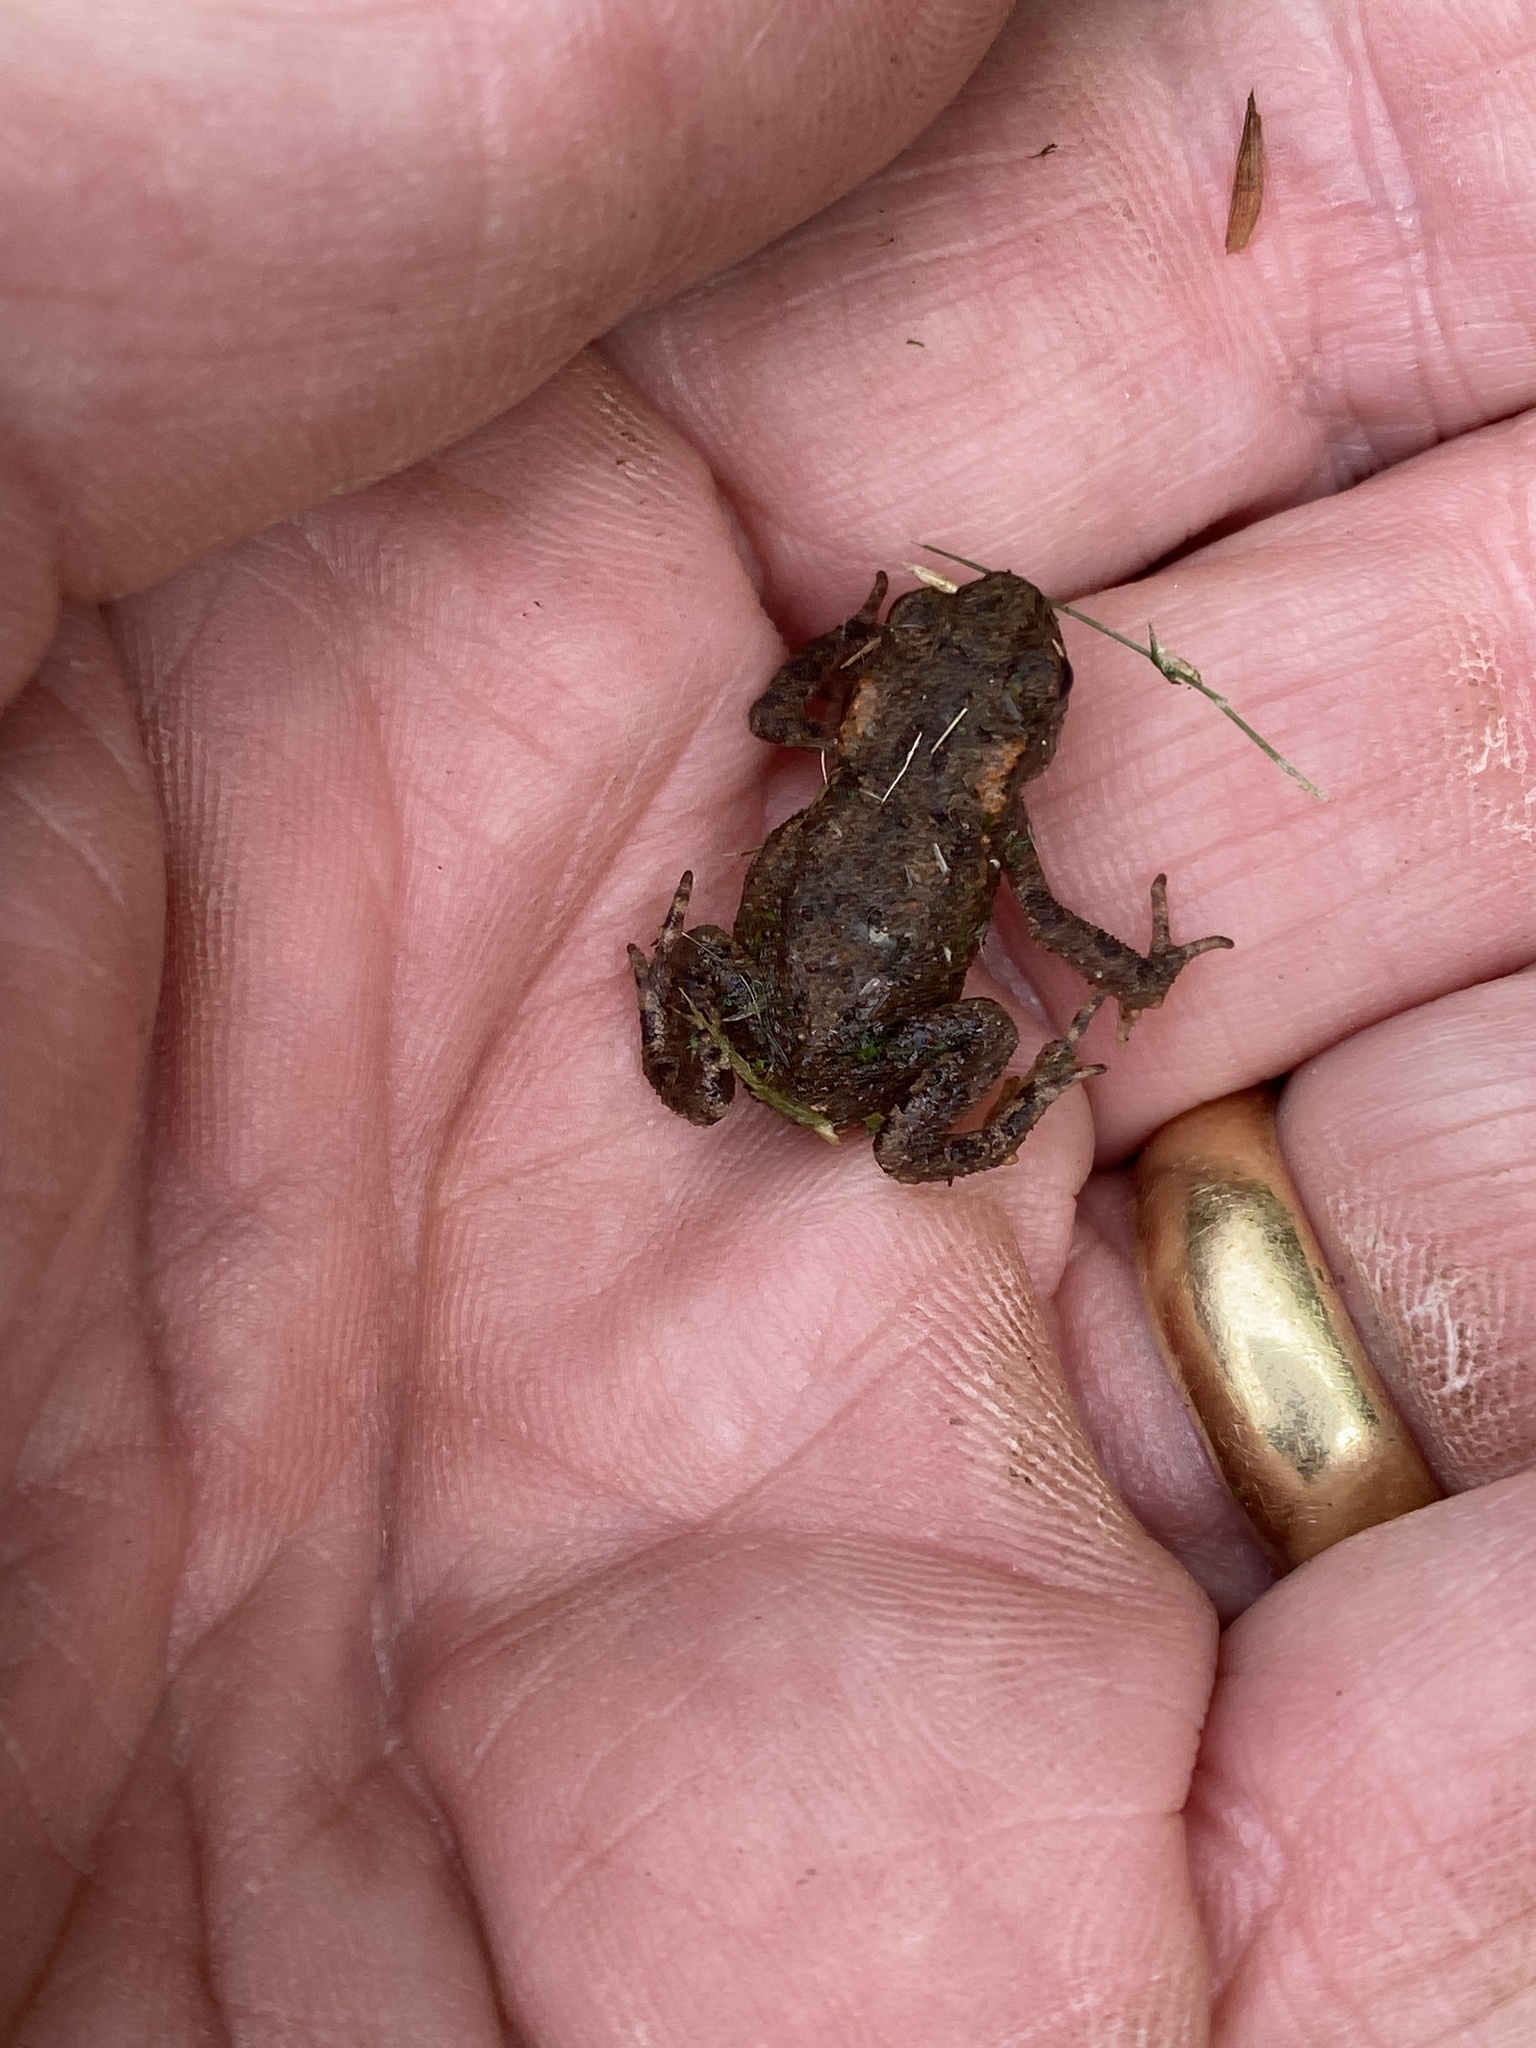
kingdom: Animalia
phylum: Chordata
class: Amphibia
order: Anura
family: Bufonidae
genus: Bufo
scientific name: Bufo bufo
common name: Common toad
